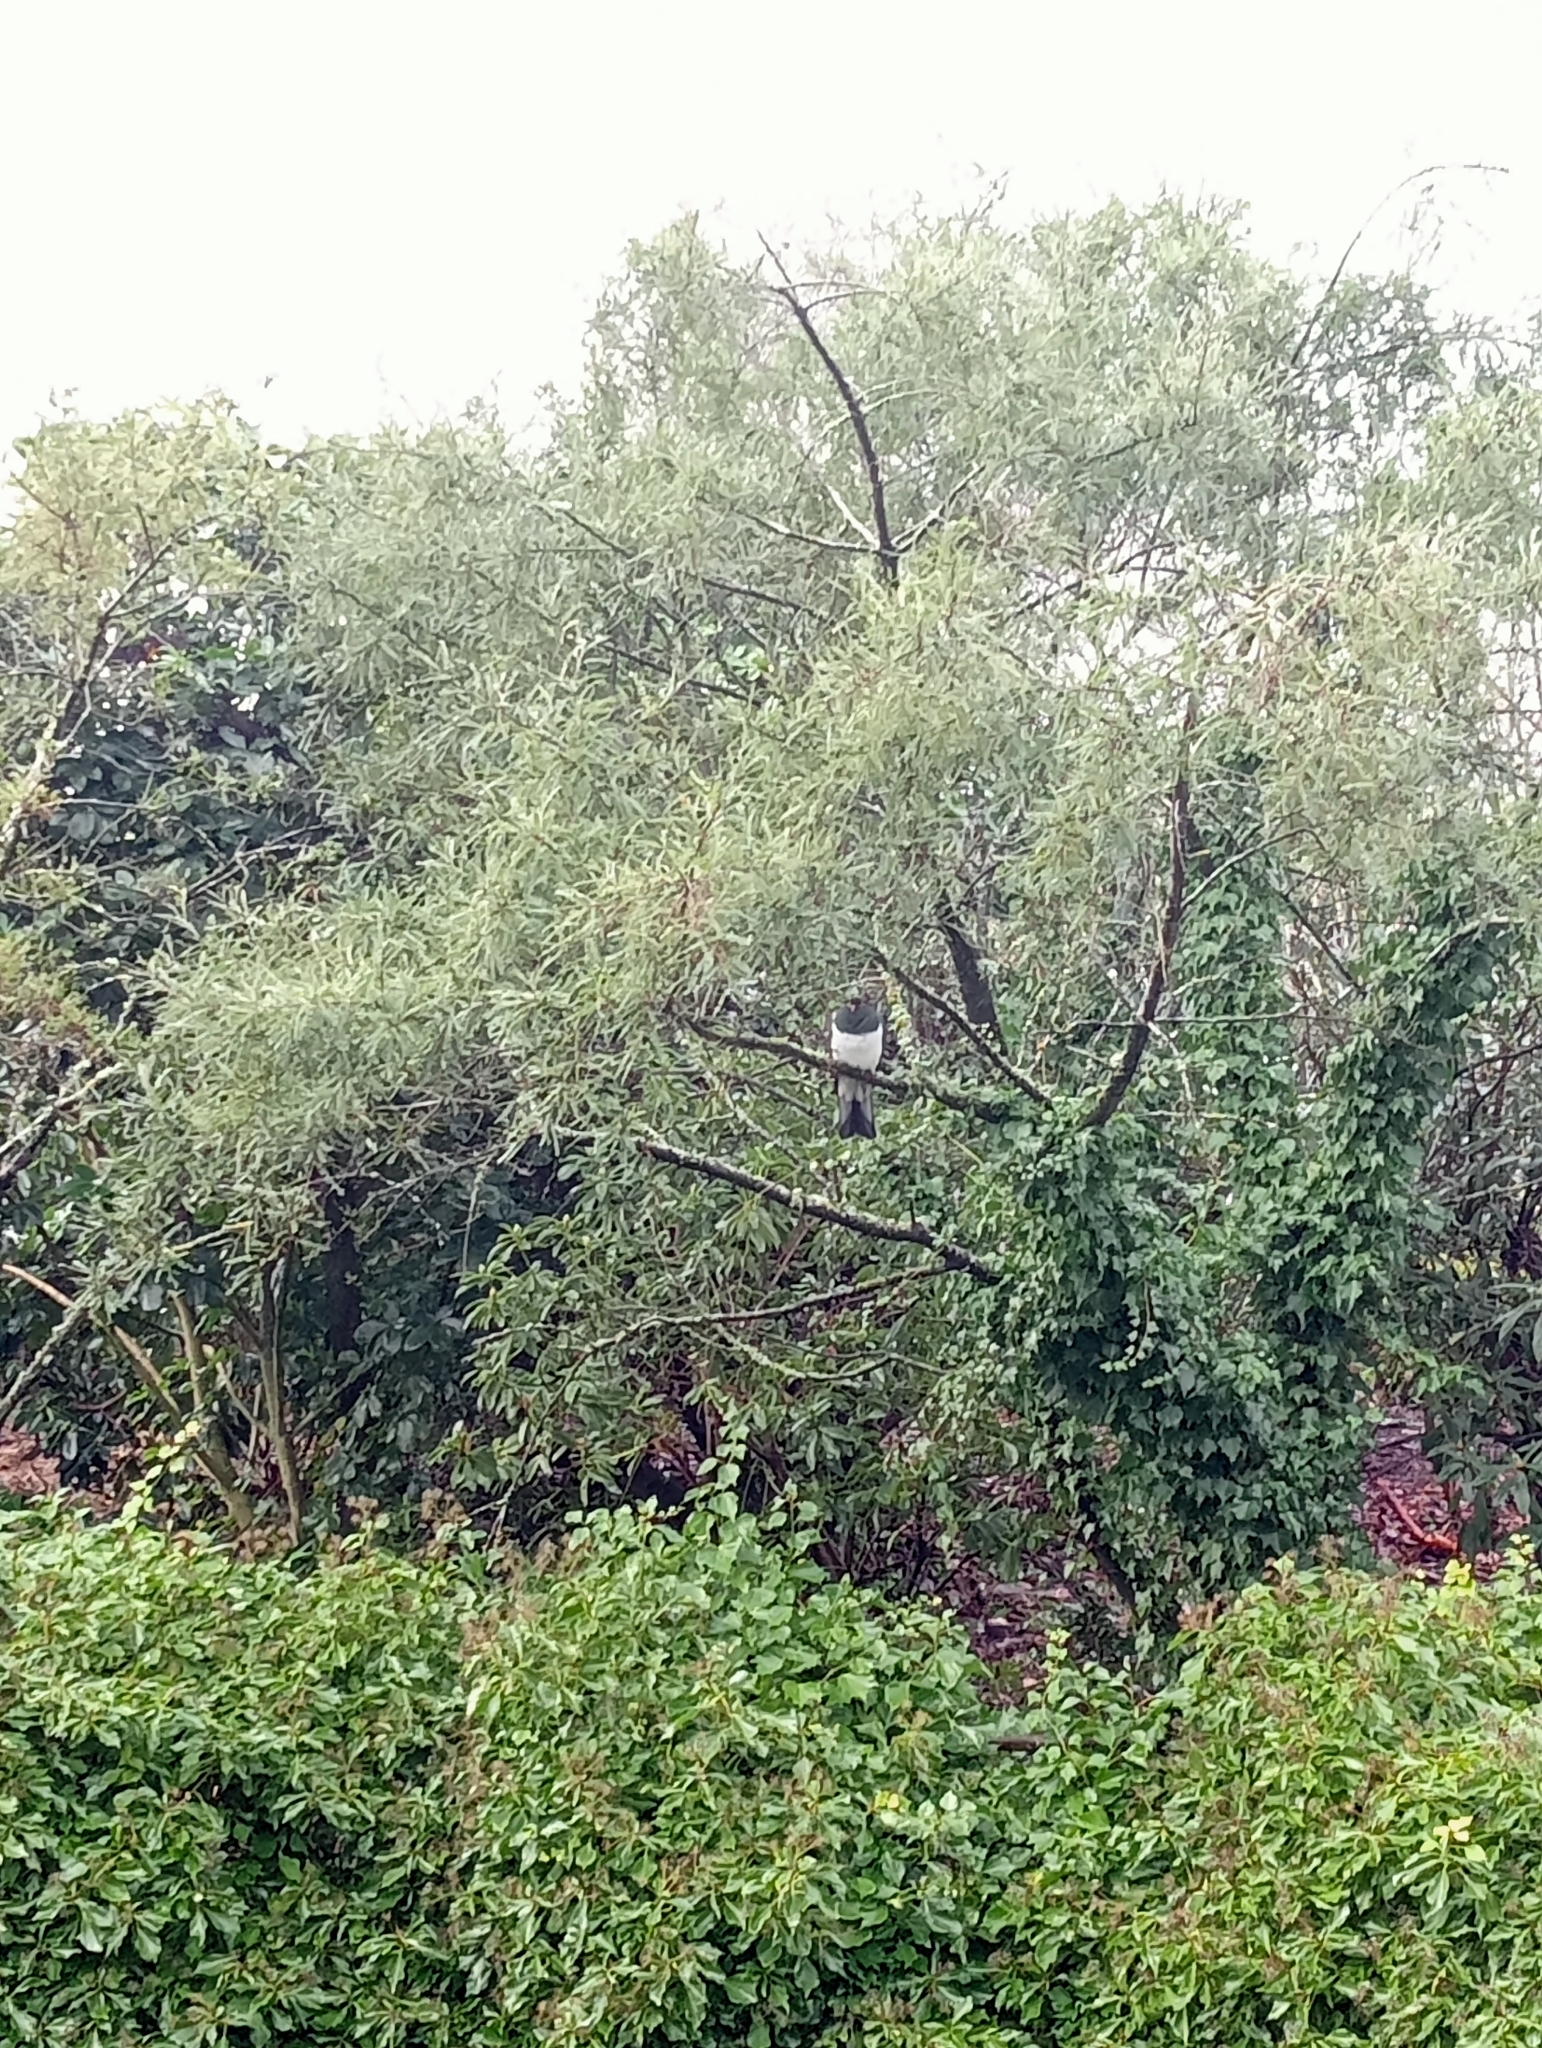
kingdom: Animalia
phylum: Chordata
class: Aves
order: Columbiformes
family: Columbidae
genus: Hemiphaga
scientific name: Hemiphaga novaeseelandiae
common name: New zealand pigeon
